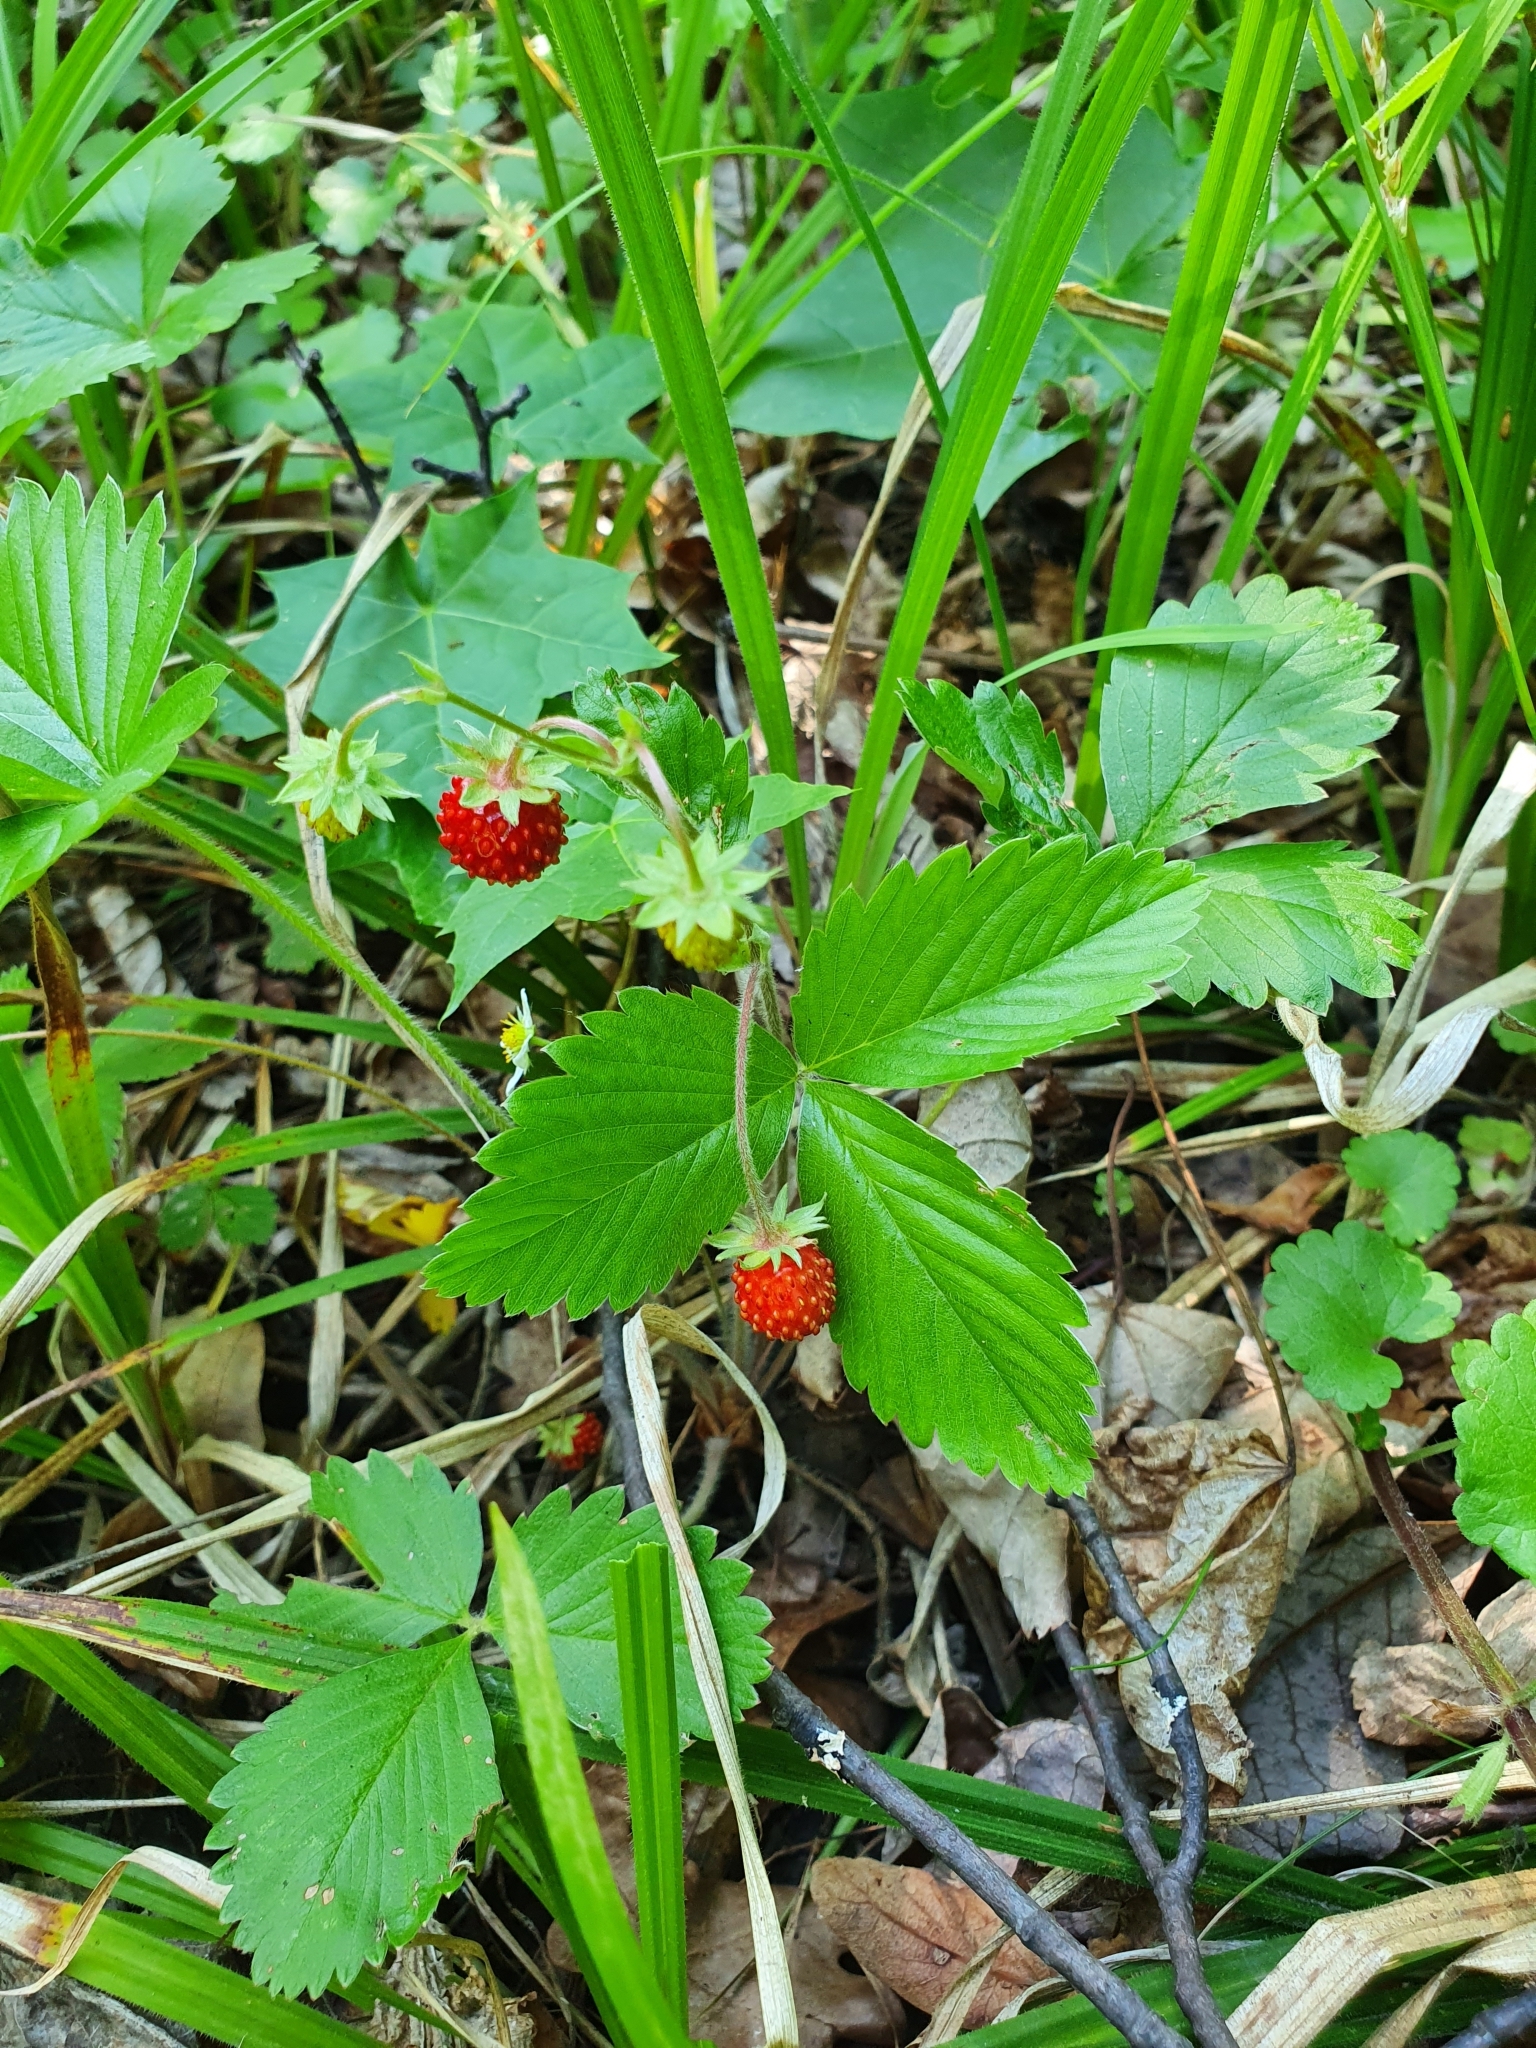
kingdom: Plantae
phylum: Tracheophyta
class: Magnoliopsida
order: Rosales
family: Rosaceae
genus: Fragaria
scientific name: Fragaria vesca
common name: Wild strawberry
